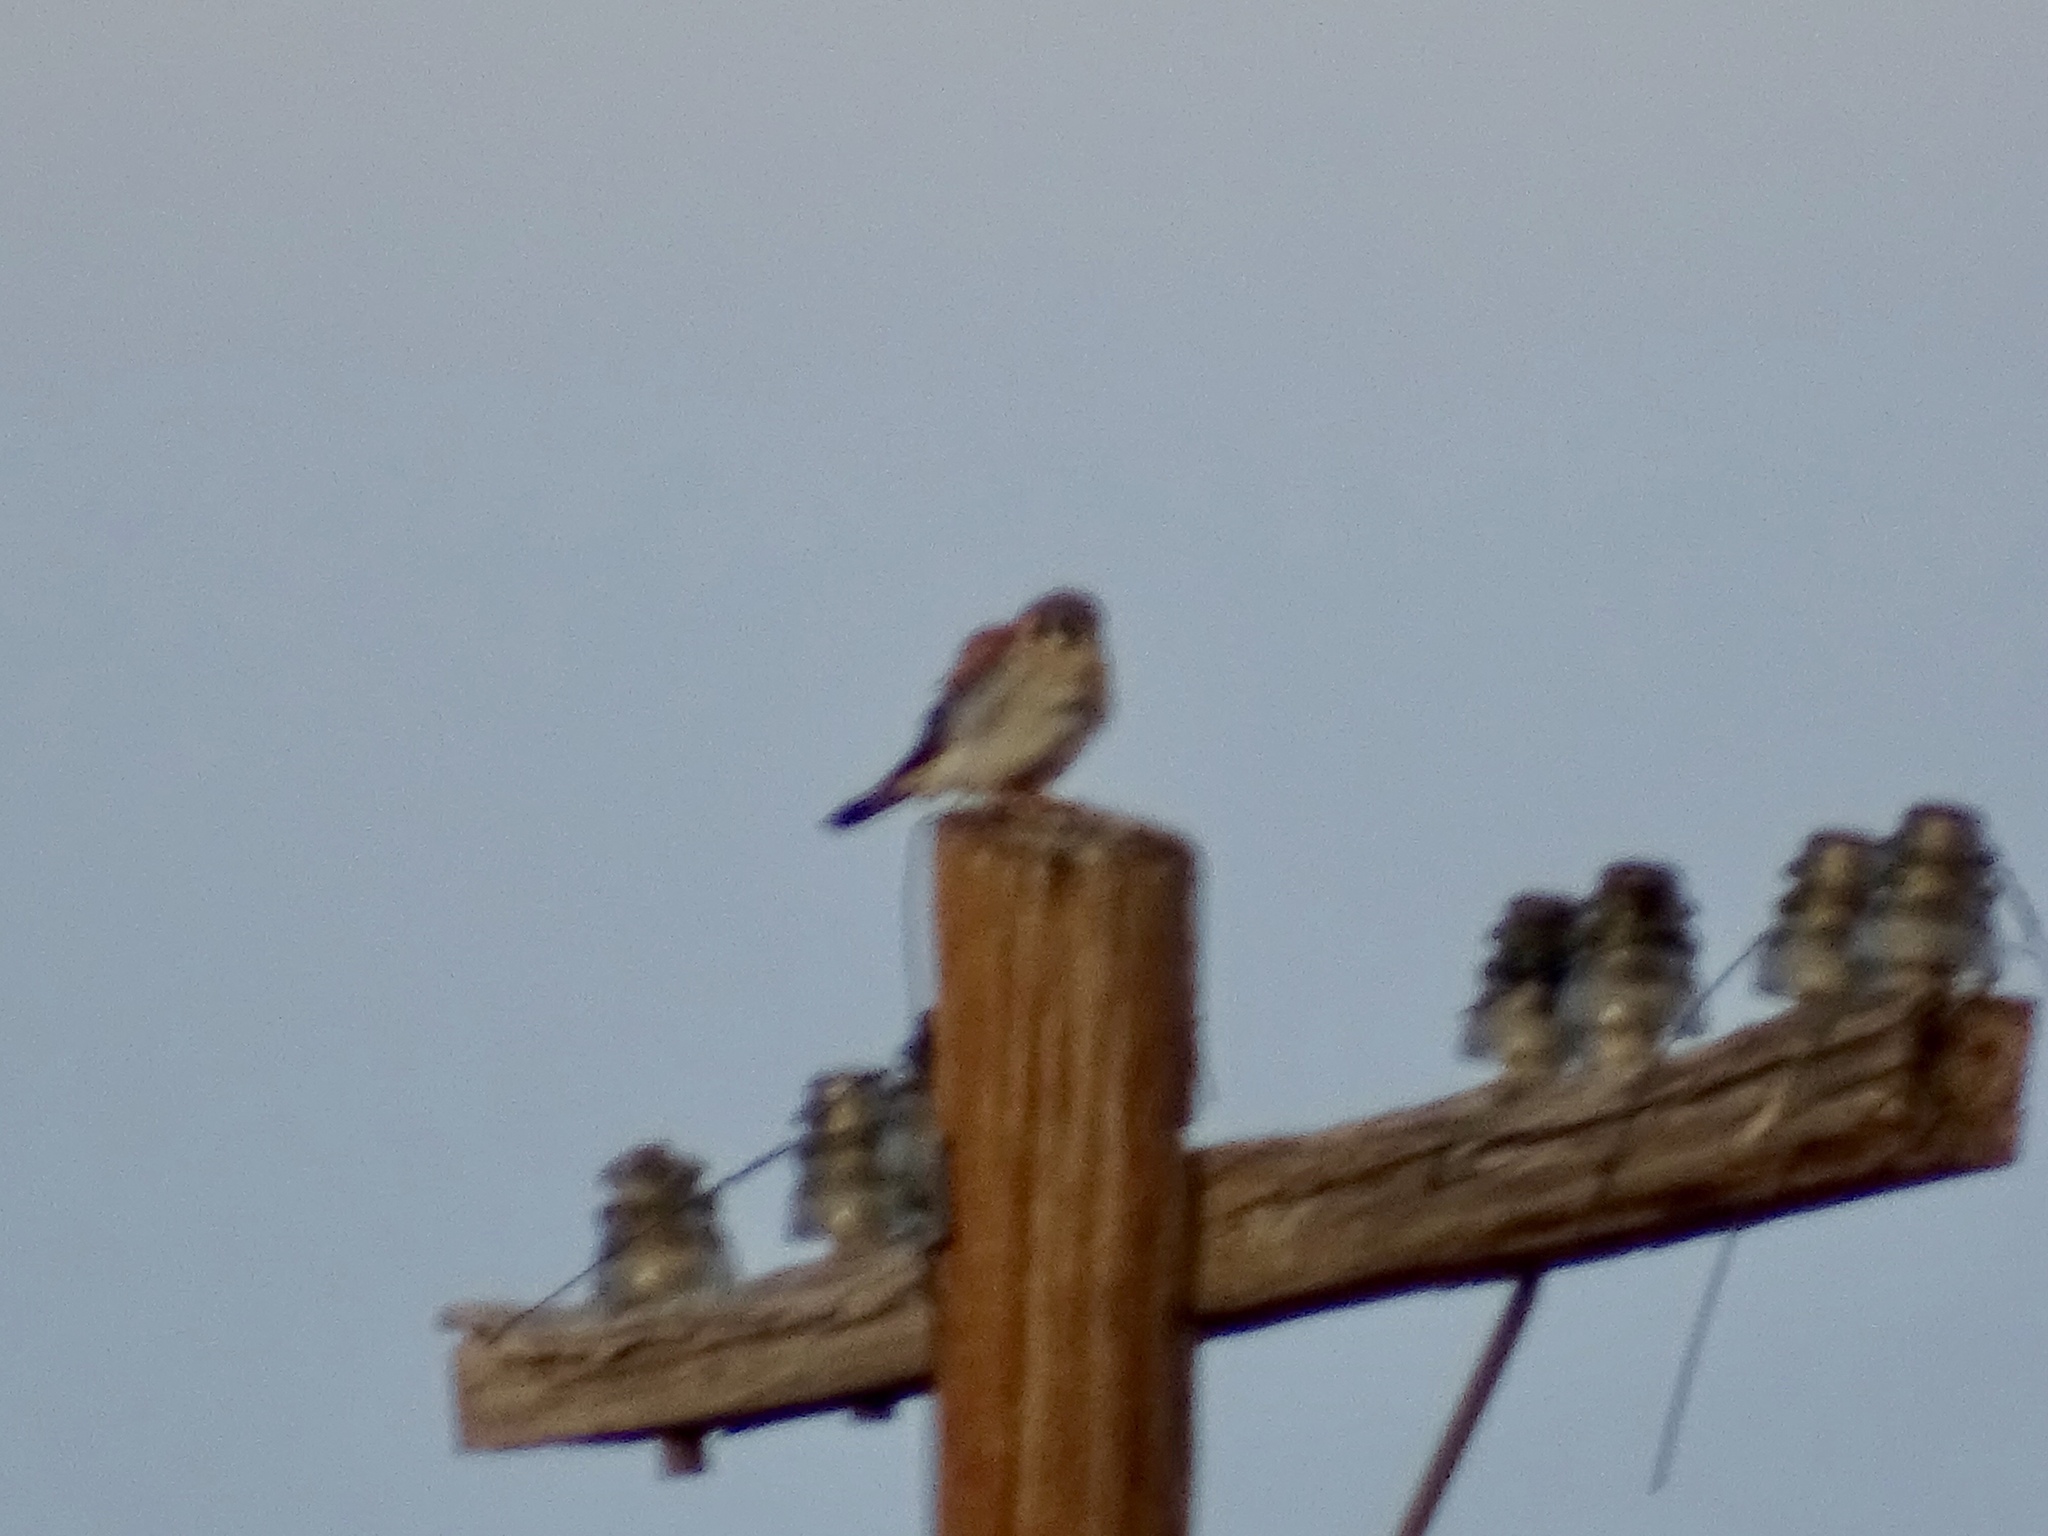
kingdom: Animalia
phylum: Chordata
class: Aves
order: Falconiformes
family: Falconidae
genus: Falco
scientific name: Falco sparverius
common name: American kestrel
